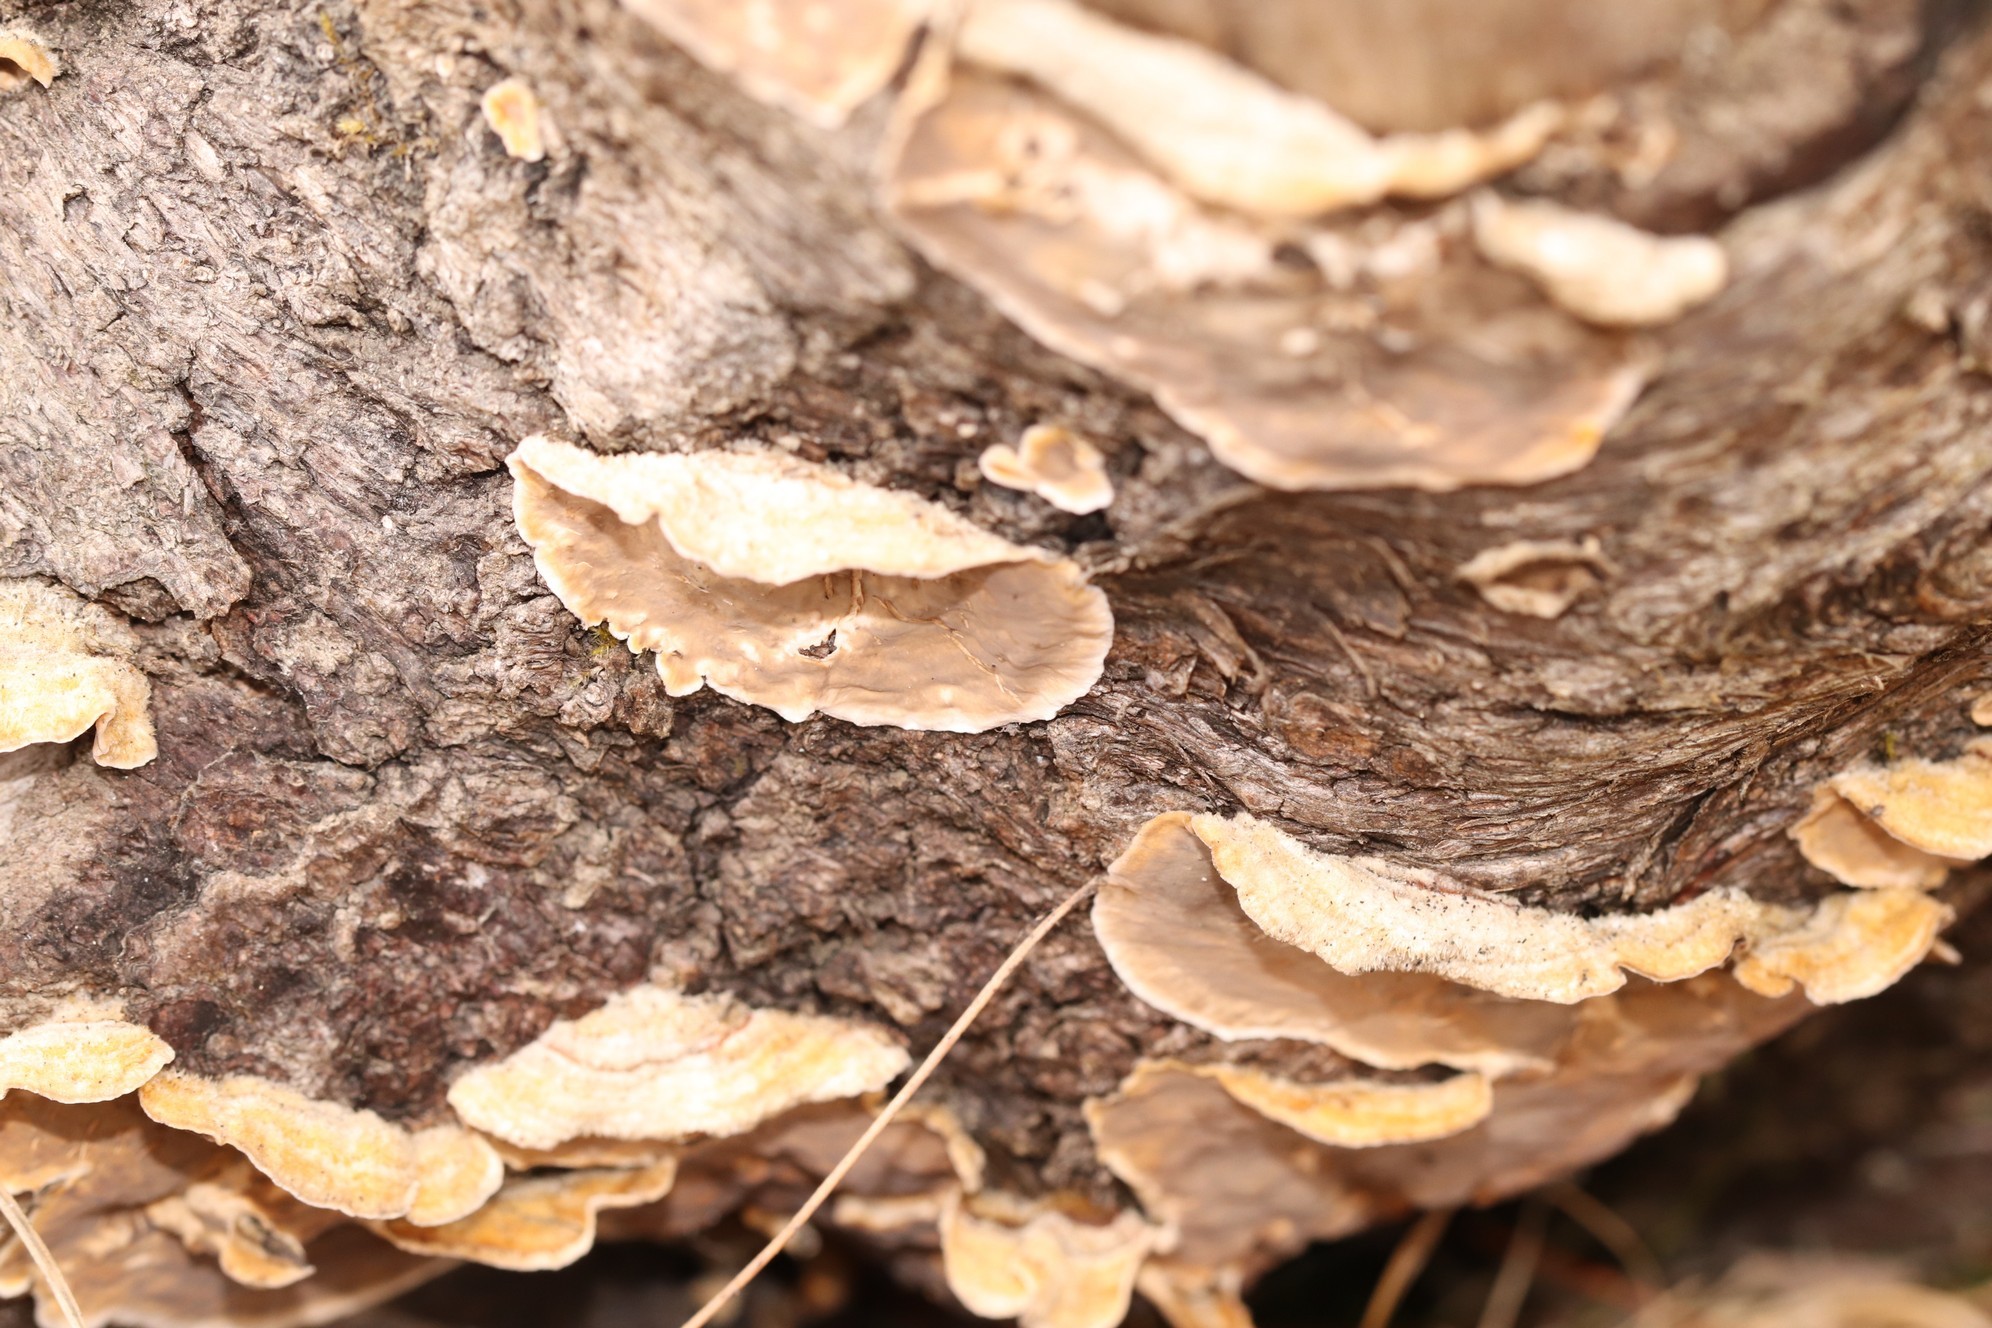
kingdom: Fungi
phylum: Basidiomycota
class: Agaricomycetes
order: Russulales
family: Stereaceae
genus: Stereum
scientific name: Stereum hirsutum
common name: Hairy curtain crust
